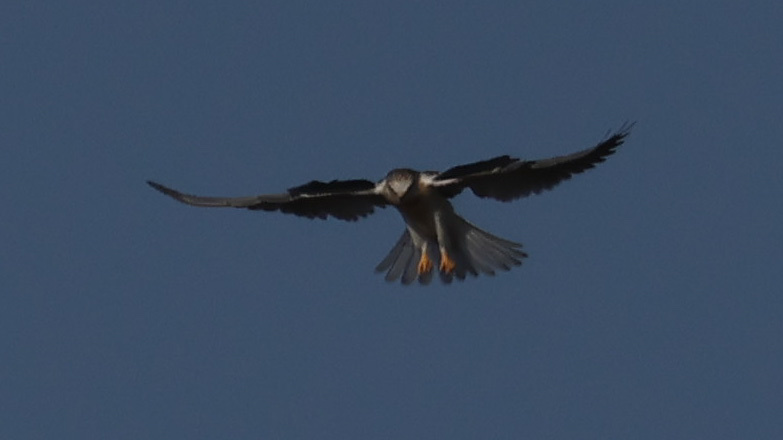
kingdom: Animalia
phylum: Chordata
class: Aves
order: Accipitriformes
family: Accipitridae
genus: Elanus
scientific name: Elanus leucurus
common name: White-tailed kite
